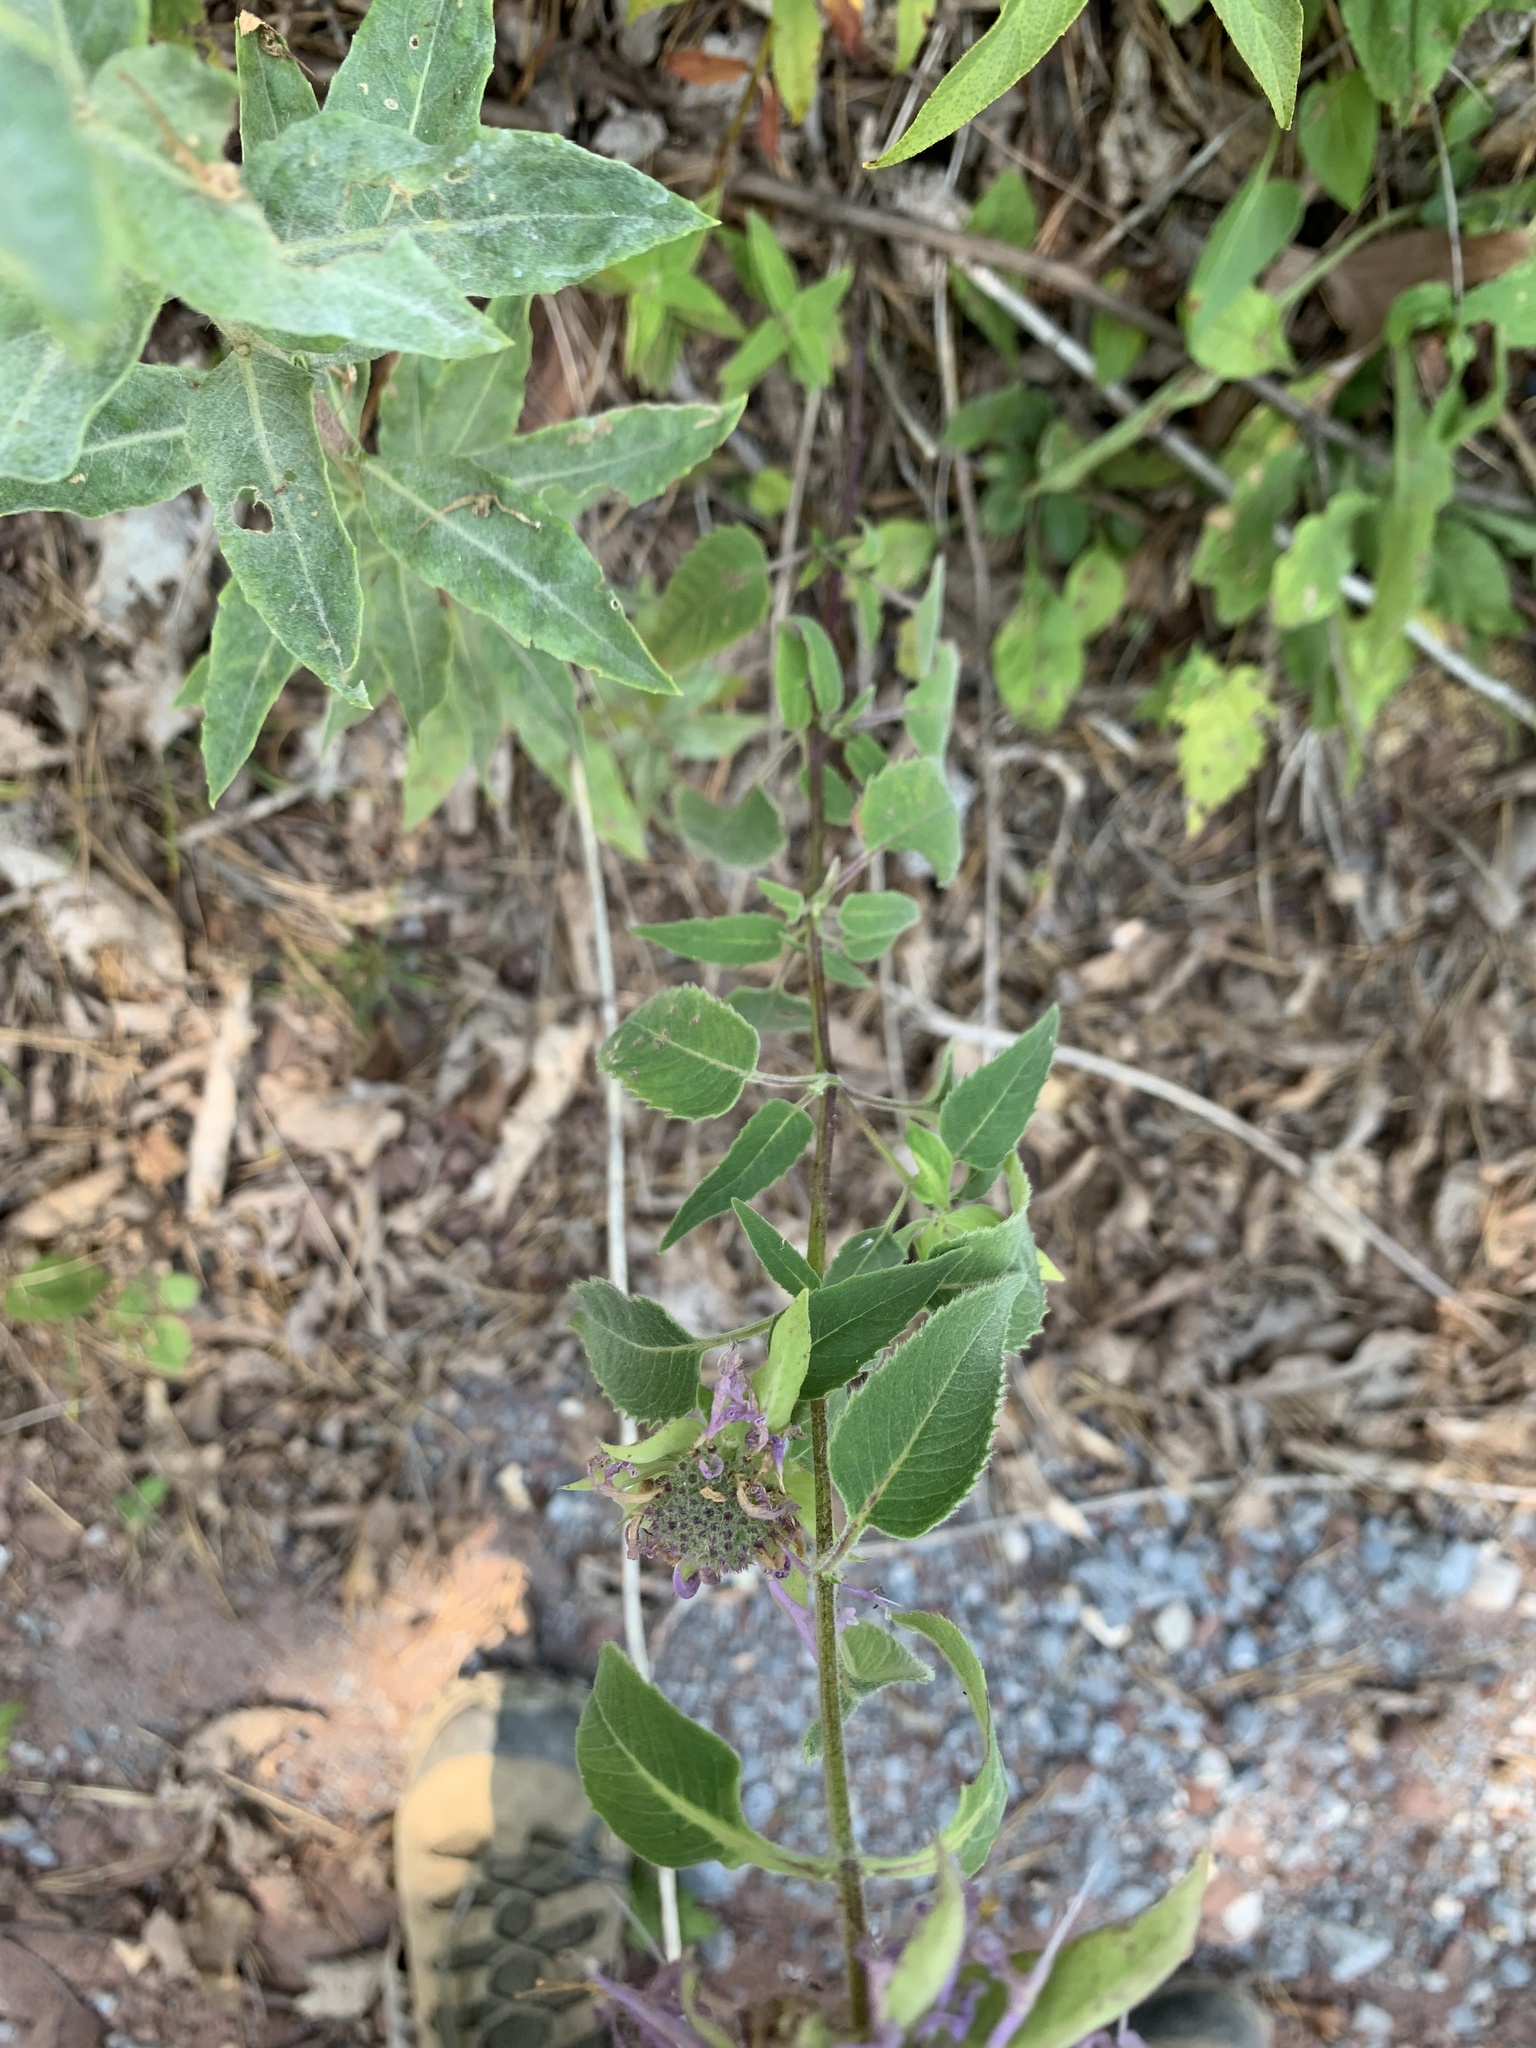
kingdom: Plantae
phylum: Tracheophyta
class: Magnoliopsida
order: Lamiales
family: Lamiaceae
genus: Monarda
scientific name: Monarda fistulosa
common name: Purple beebalm
